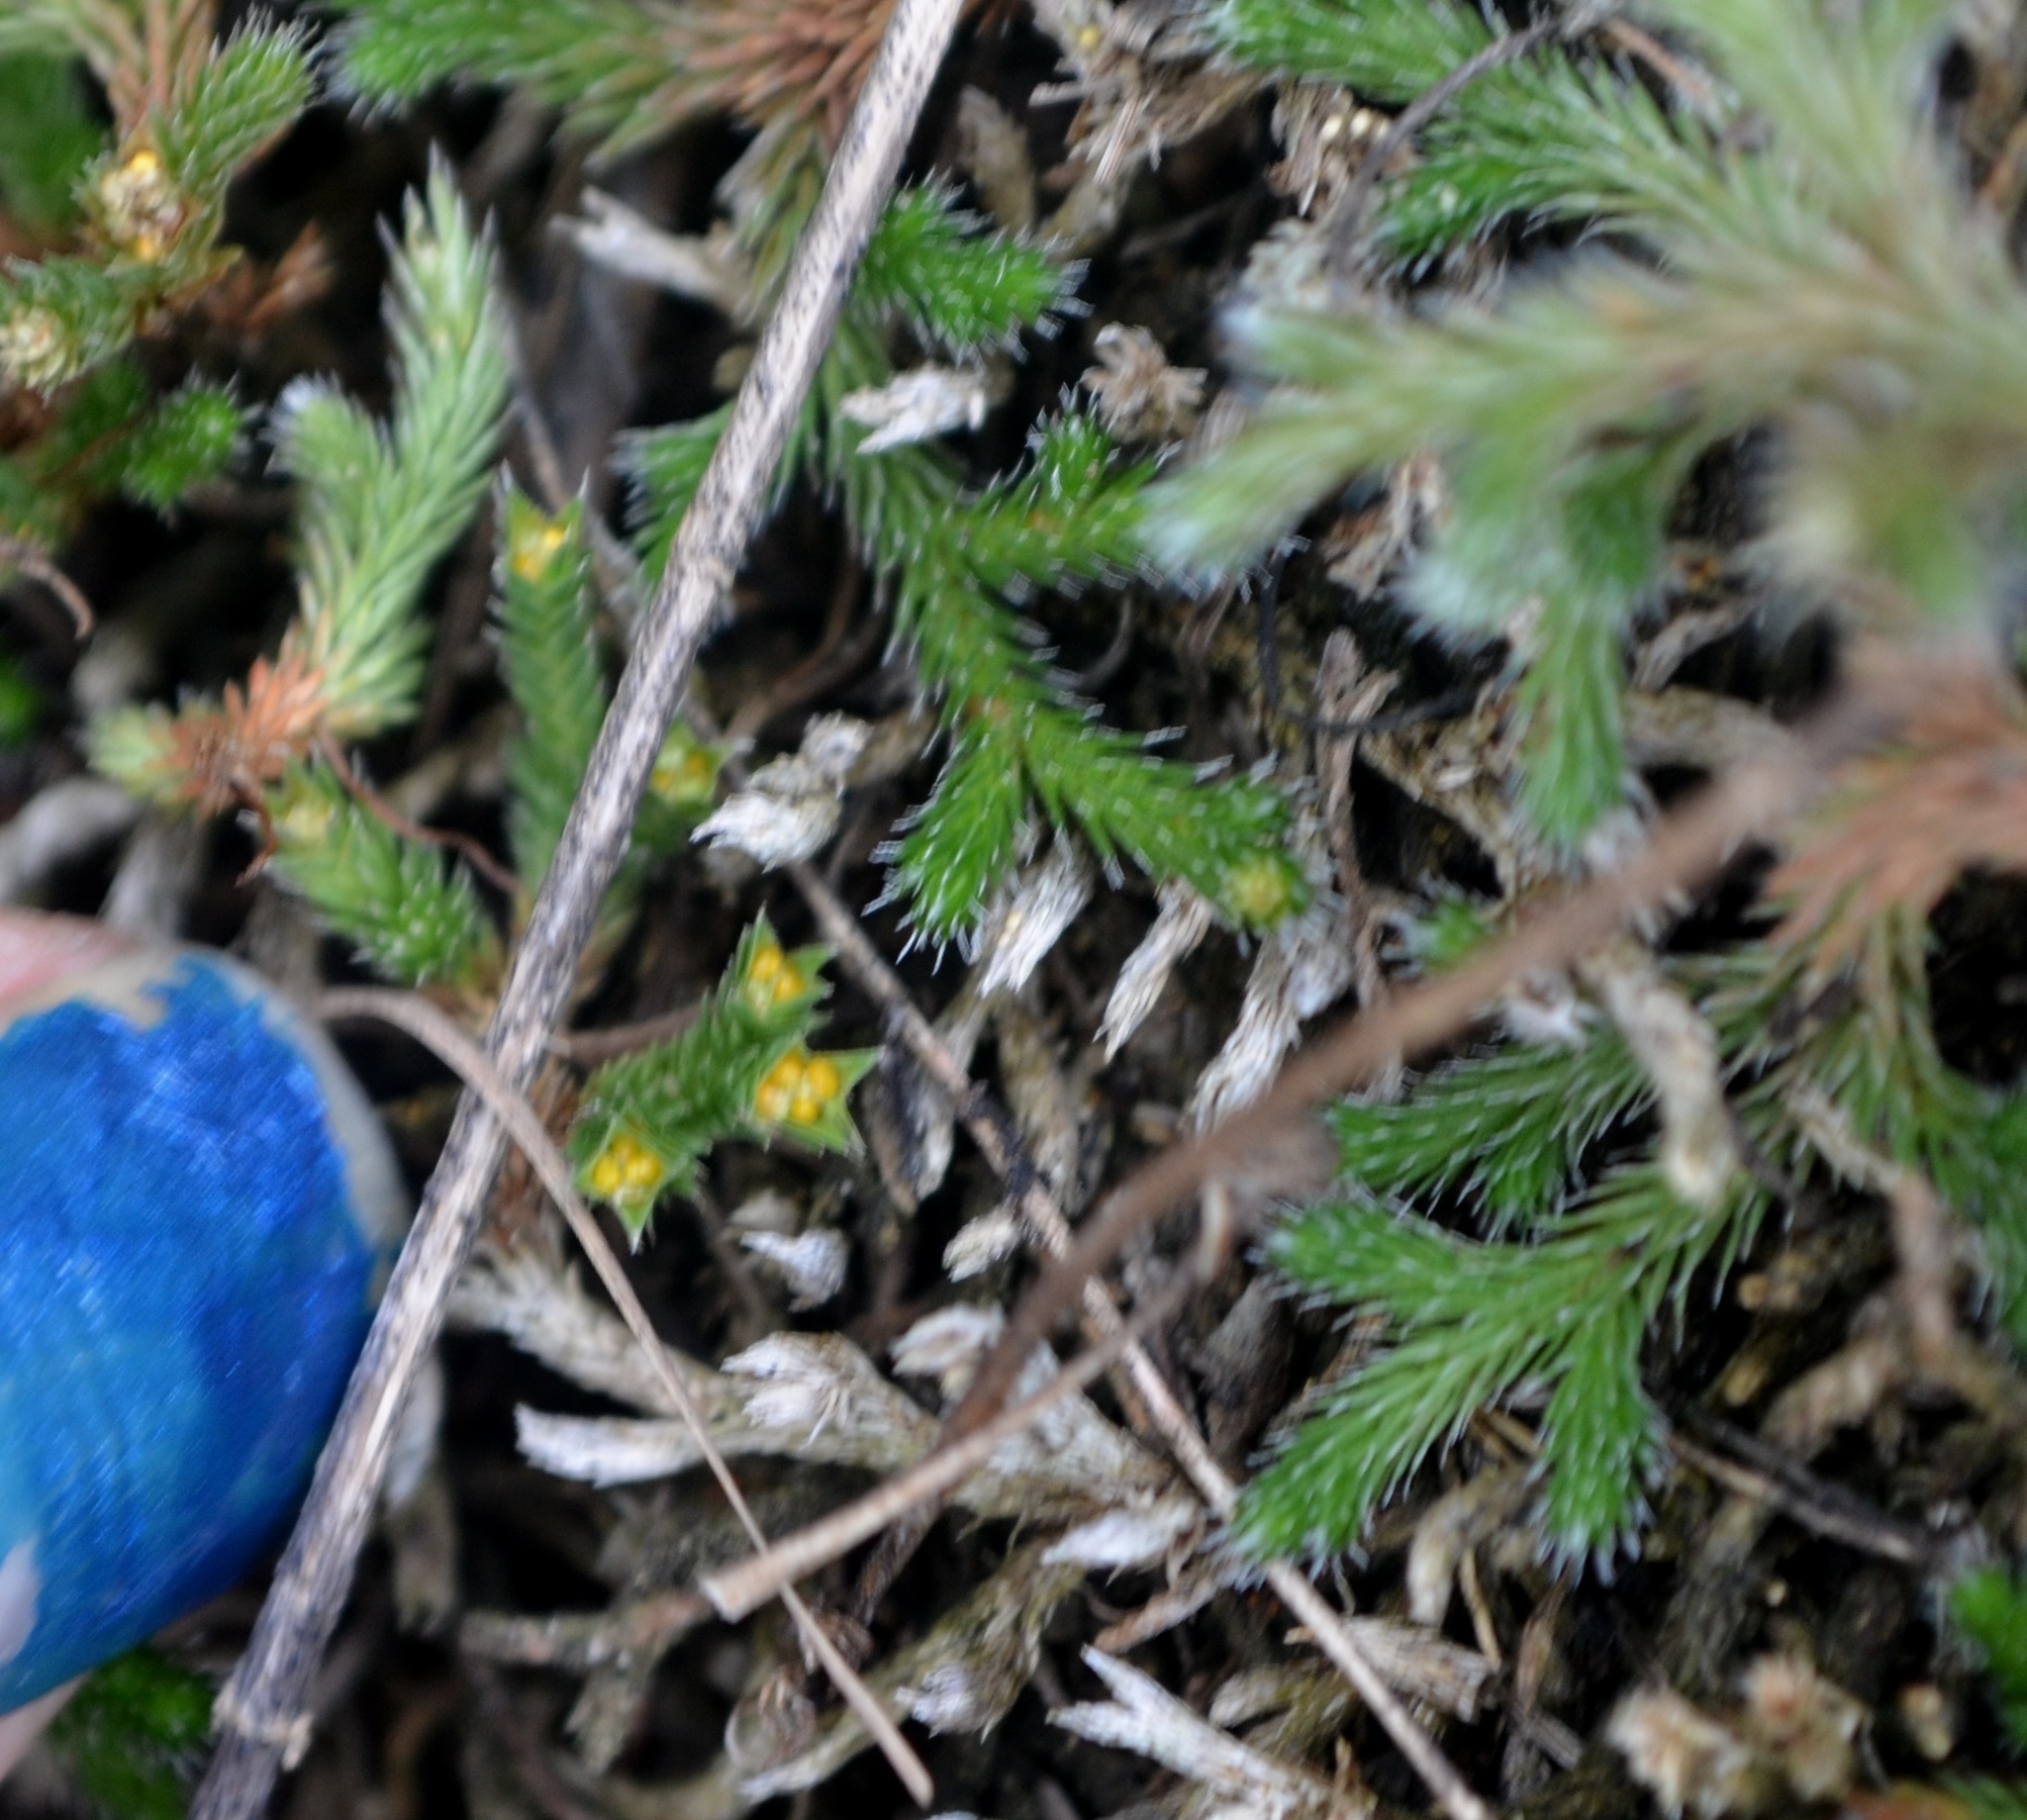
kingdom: Plantae
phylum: Tracheophyta
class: Lycopodiopsida
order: Selaginellales
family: Selaginellaceae
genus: Selaginella
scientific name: Selaginella rupestris
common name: Dwarf spikemoss
